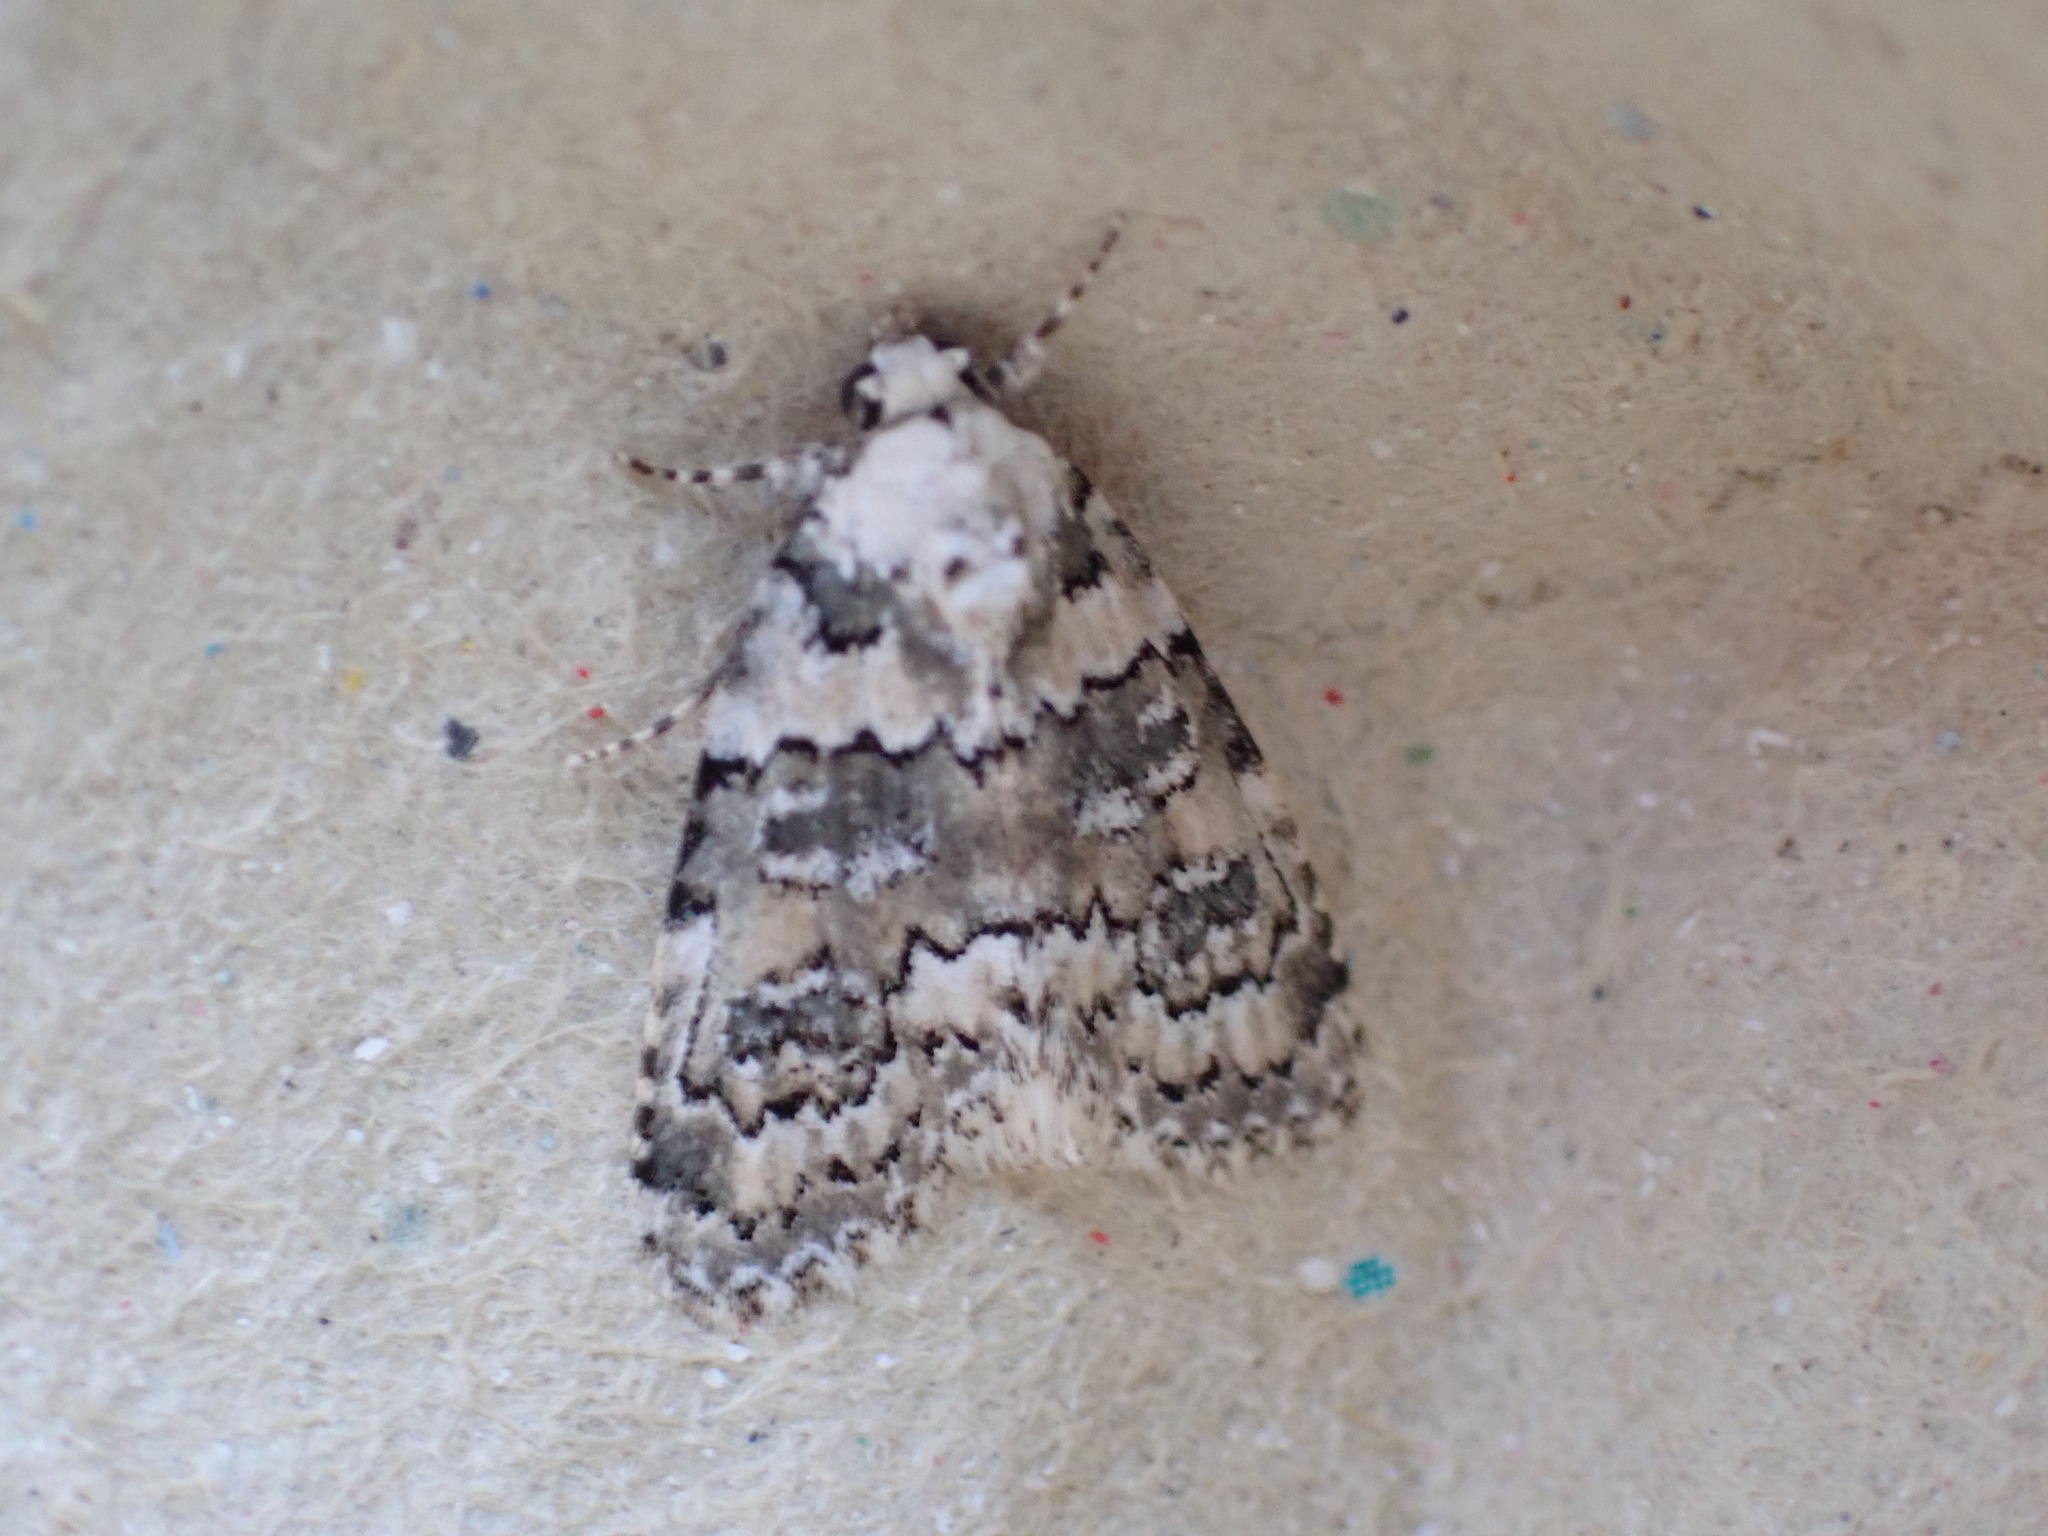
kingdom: Animalia
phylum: Arthropoda
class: Insecta
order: Lepidoptera
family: Noctuidae
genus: Bryophila
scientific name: Bryophila domestica
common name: Marbled beauty
